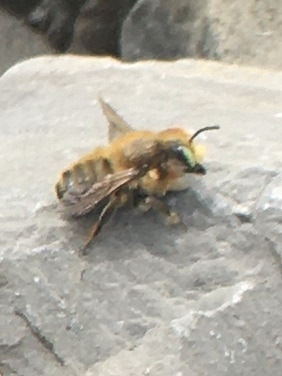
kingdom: Animalia
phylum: Arthropoda
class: Insecta
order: Hymenoptera
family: Megachilidae
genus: Megachile
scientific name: Megachile latimanus
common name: Leafcutting bee
